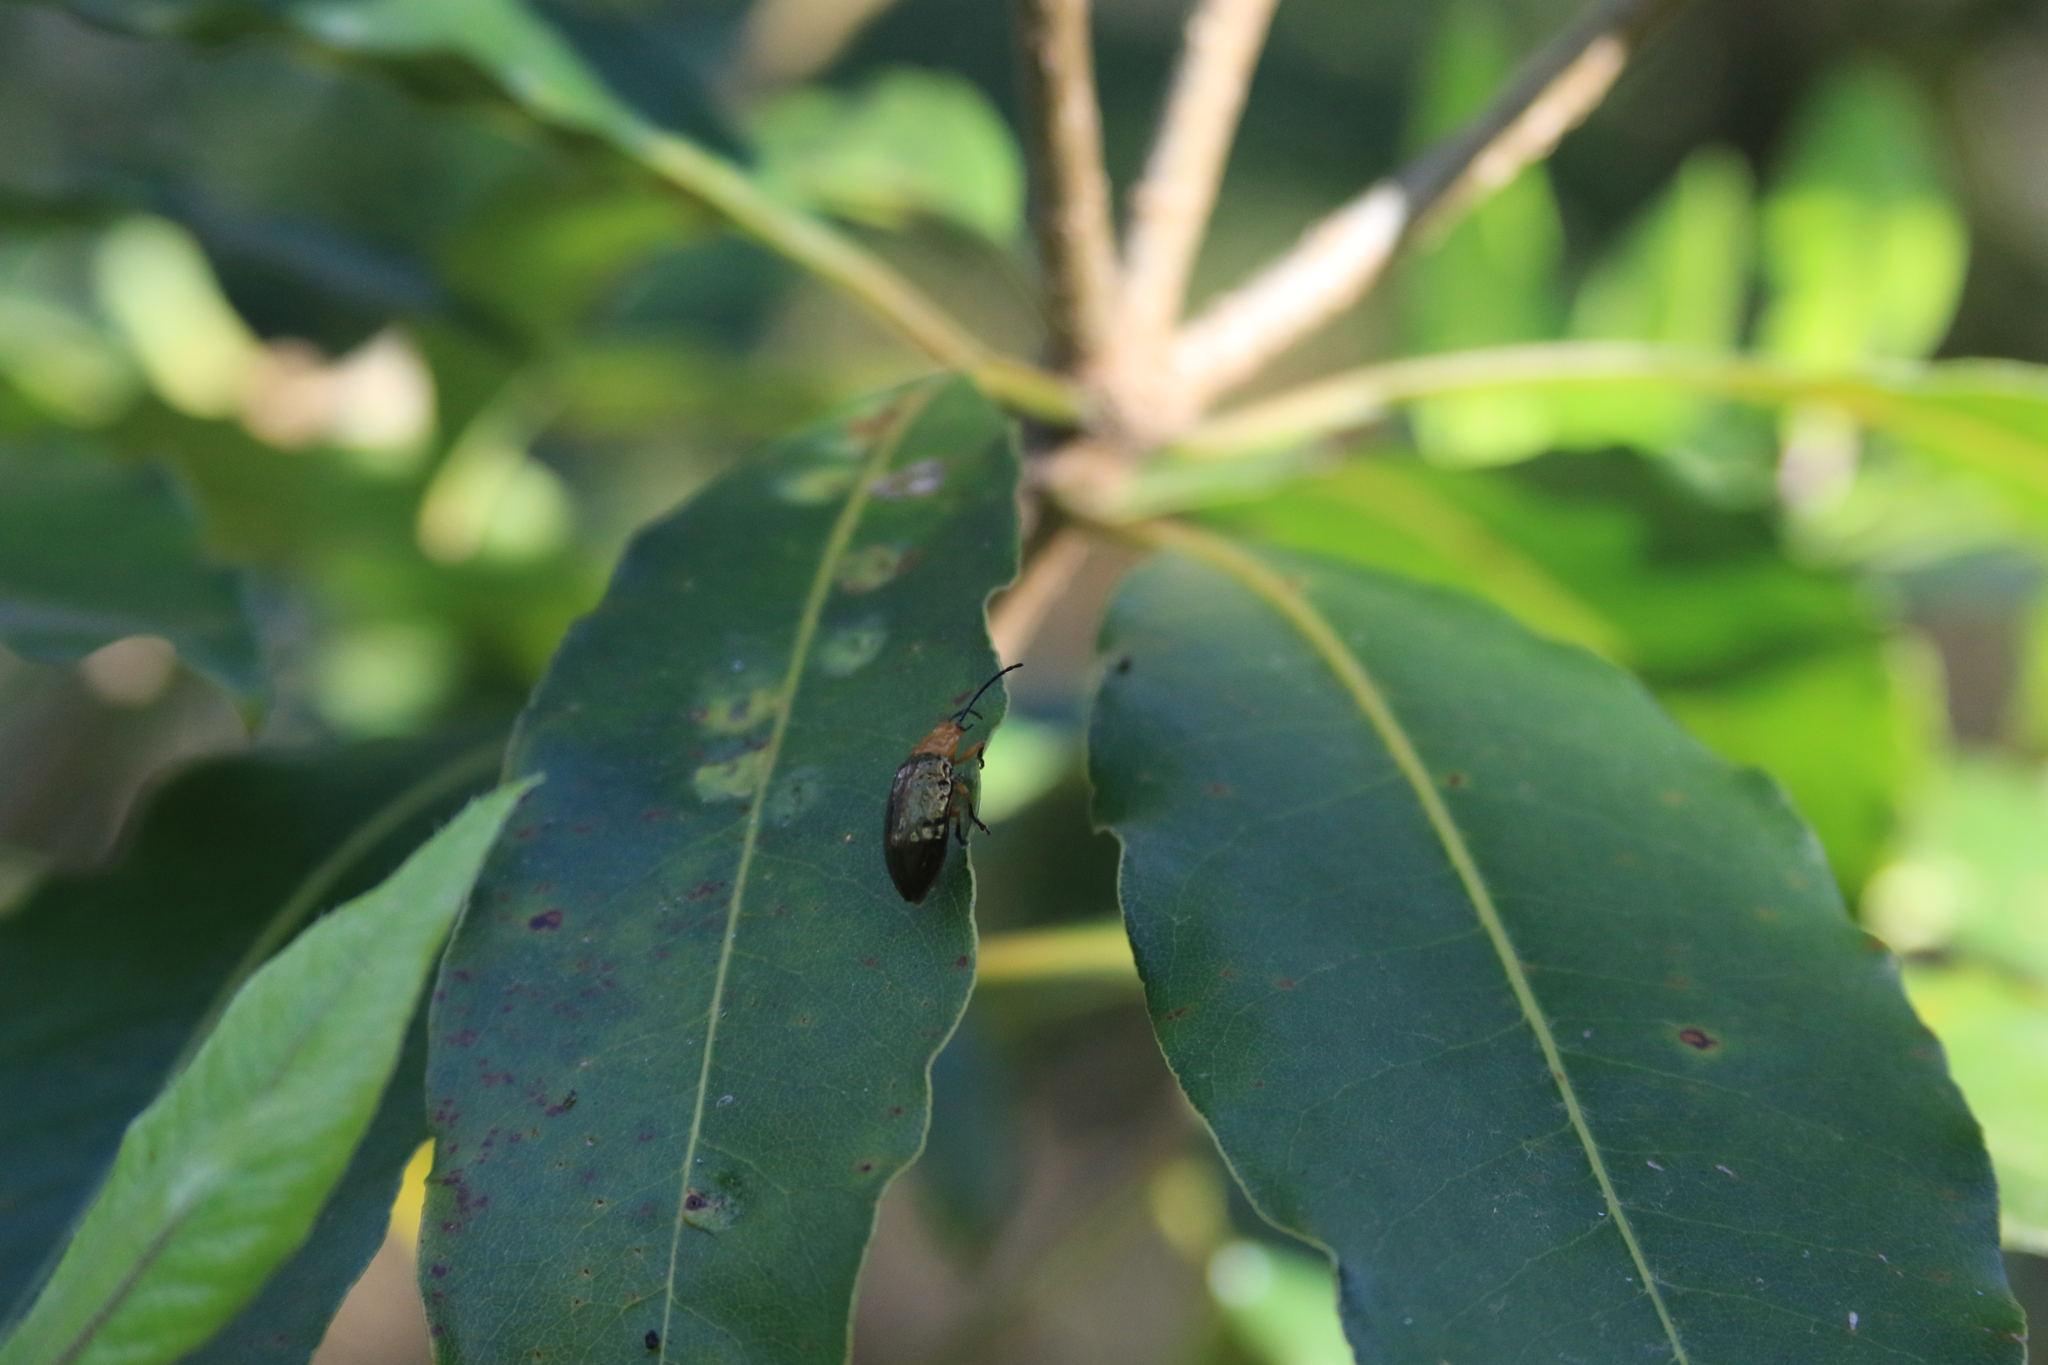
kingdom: Animalia
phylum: Arthropoda
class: Insecta
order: Coleoptera
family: Chrysomelidae
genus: Lamprolina
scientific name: Lamprolina
